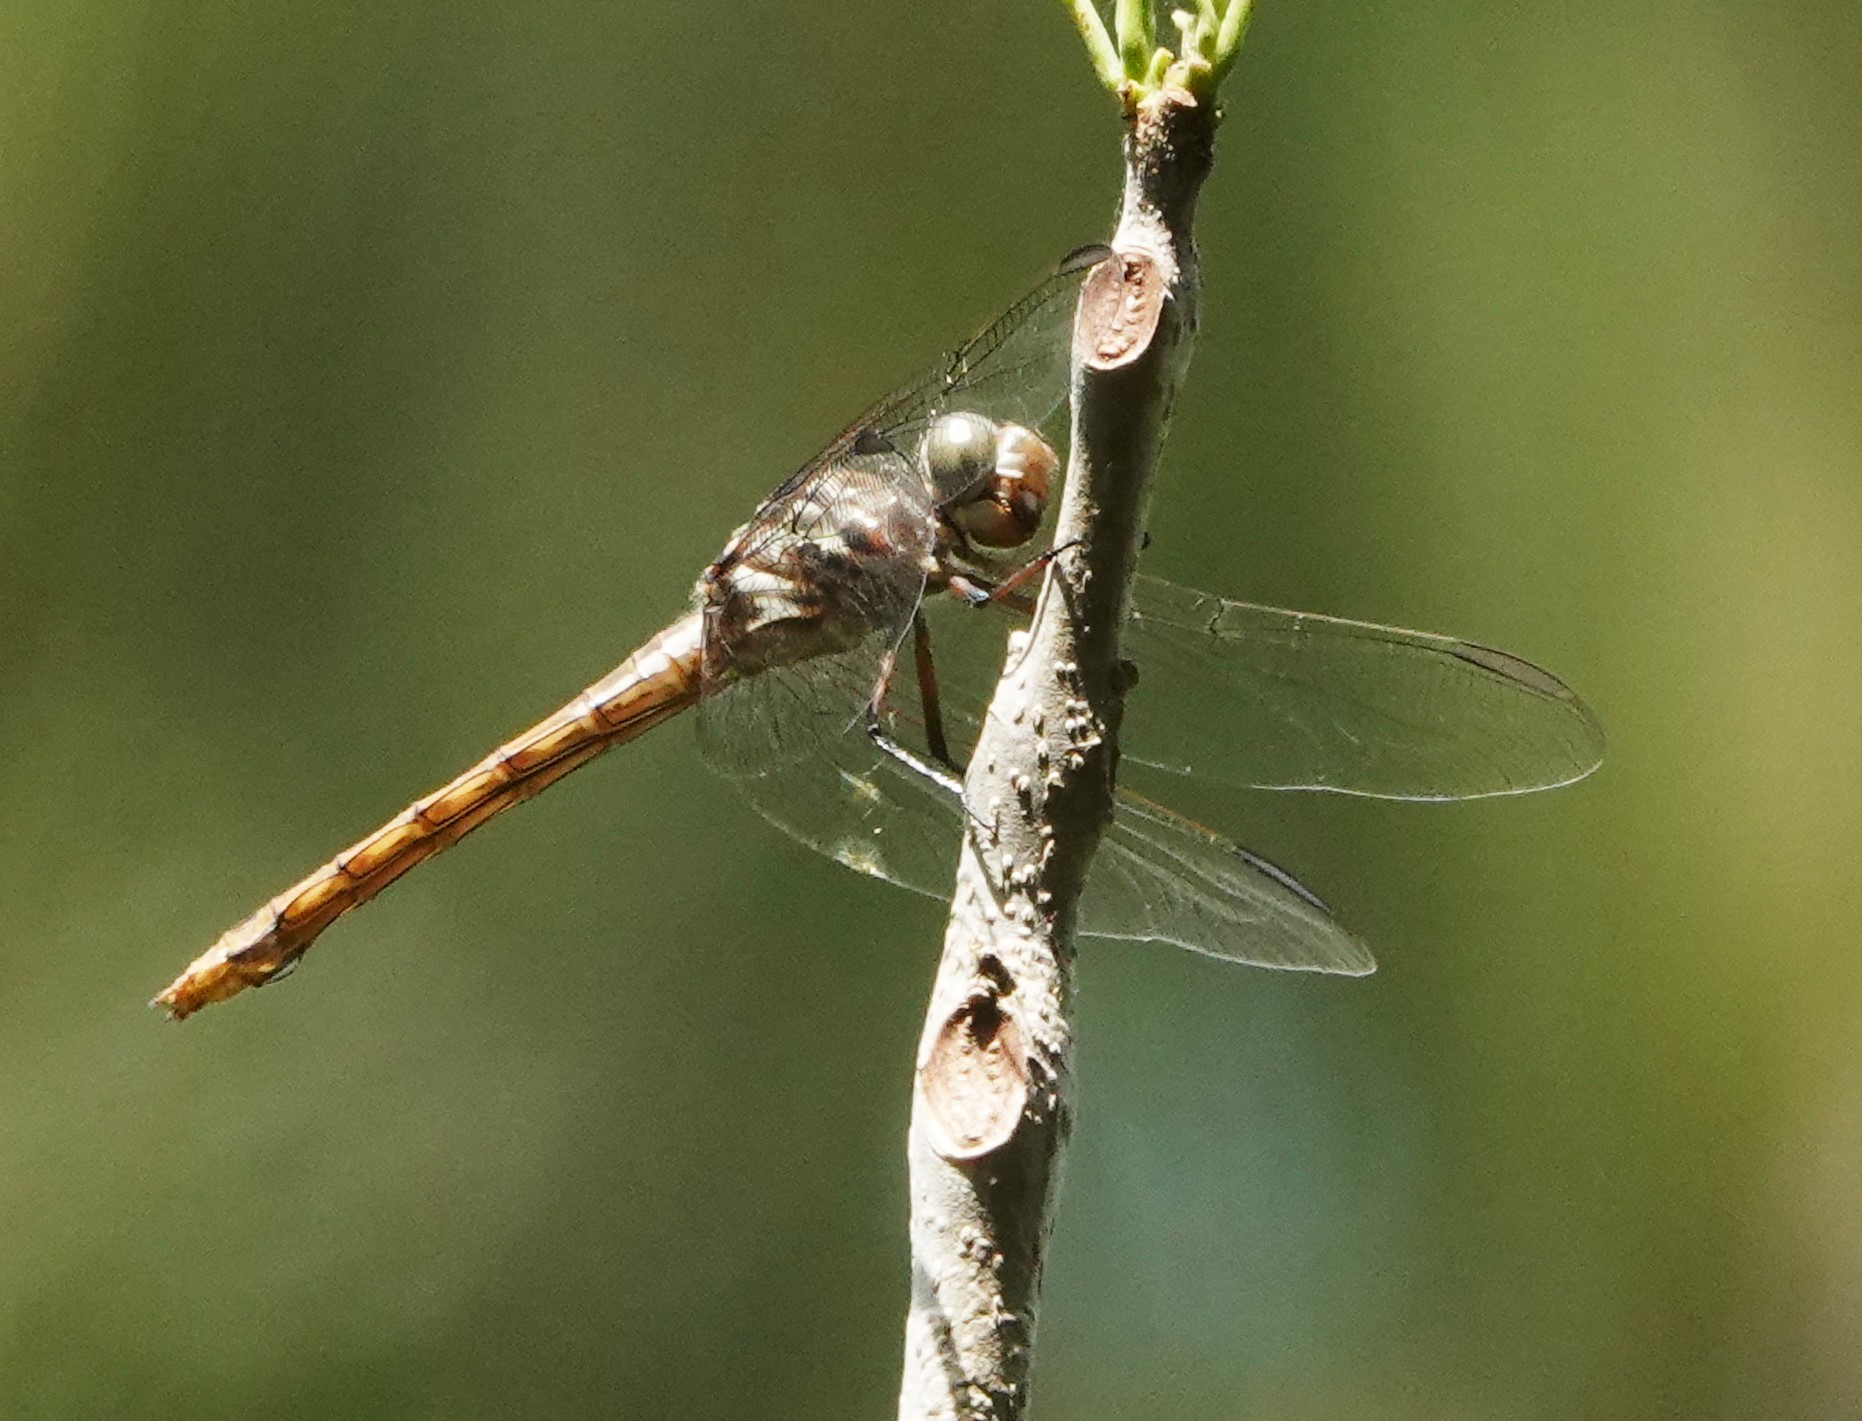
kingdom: Animalia
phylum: Arthropoda
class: Insecta
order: Odonata
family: Libellulidae
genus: Orthemis
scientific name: Orthemis ferruginea
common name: Roseate skimmer
